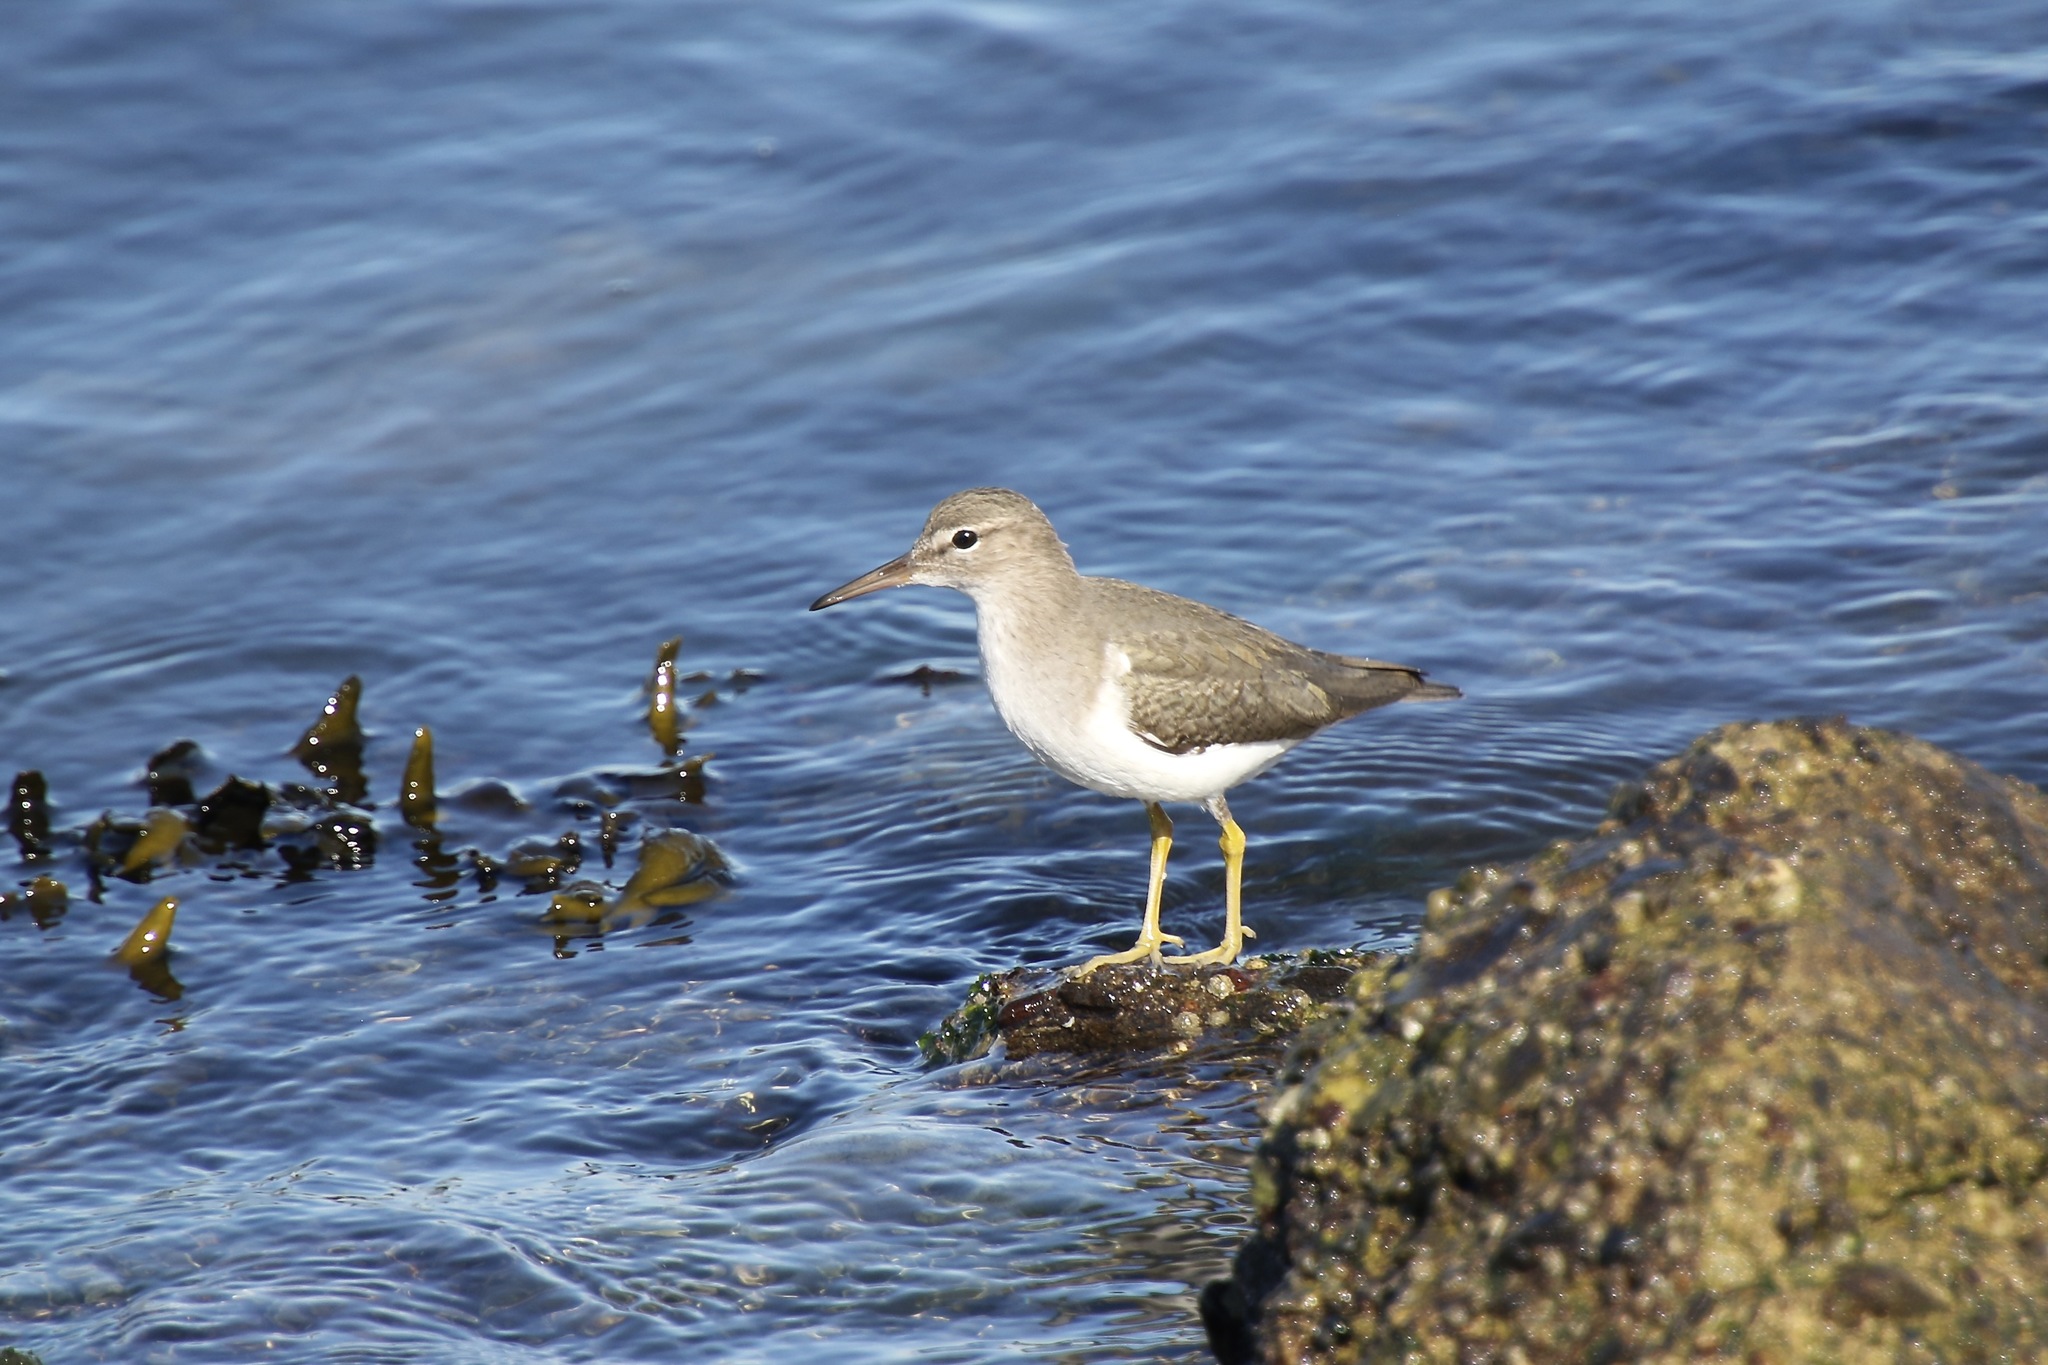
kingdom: Animalia
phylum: Chordata
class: Aves
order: Charadriiformes
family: Scolopacidae
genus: Actitis
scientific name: Actitis macularius
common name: Spotted sandpiper
